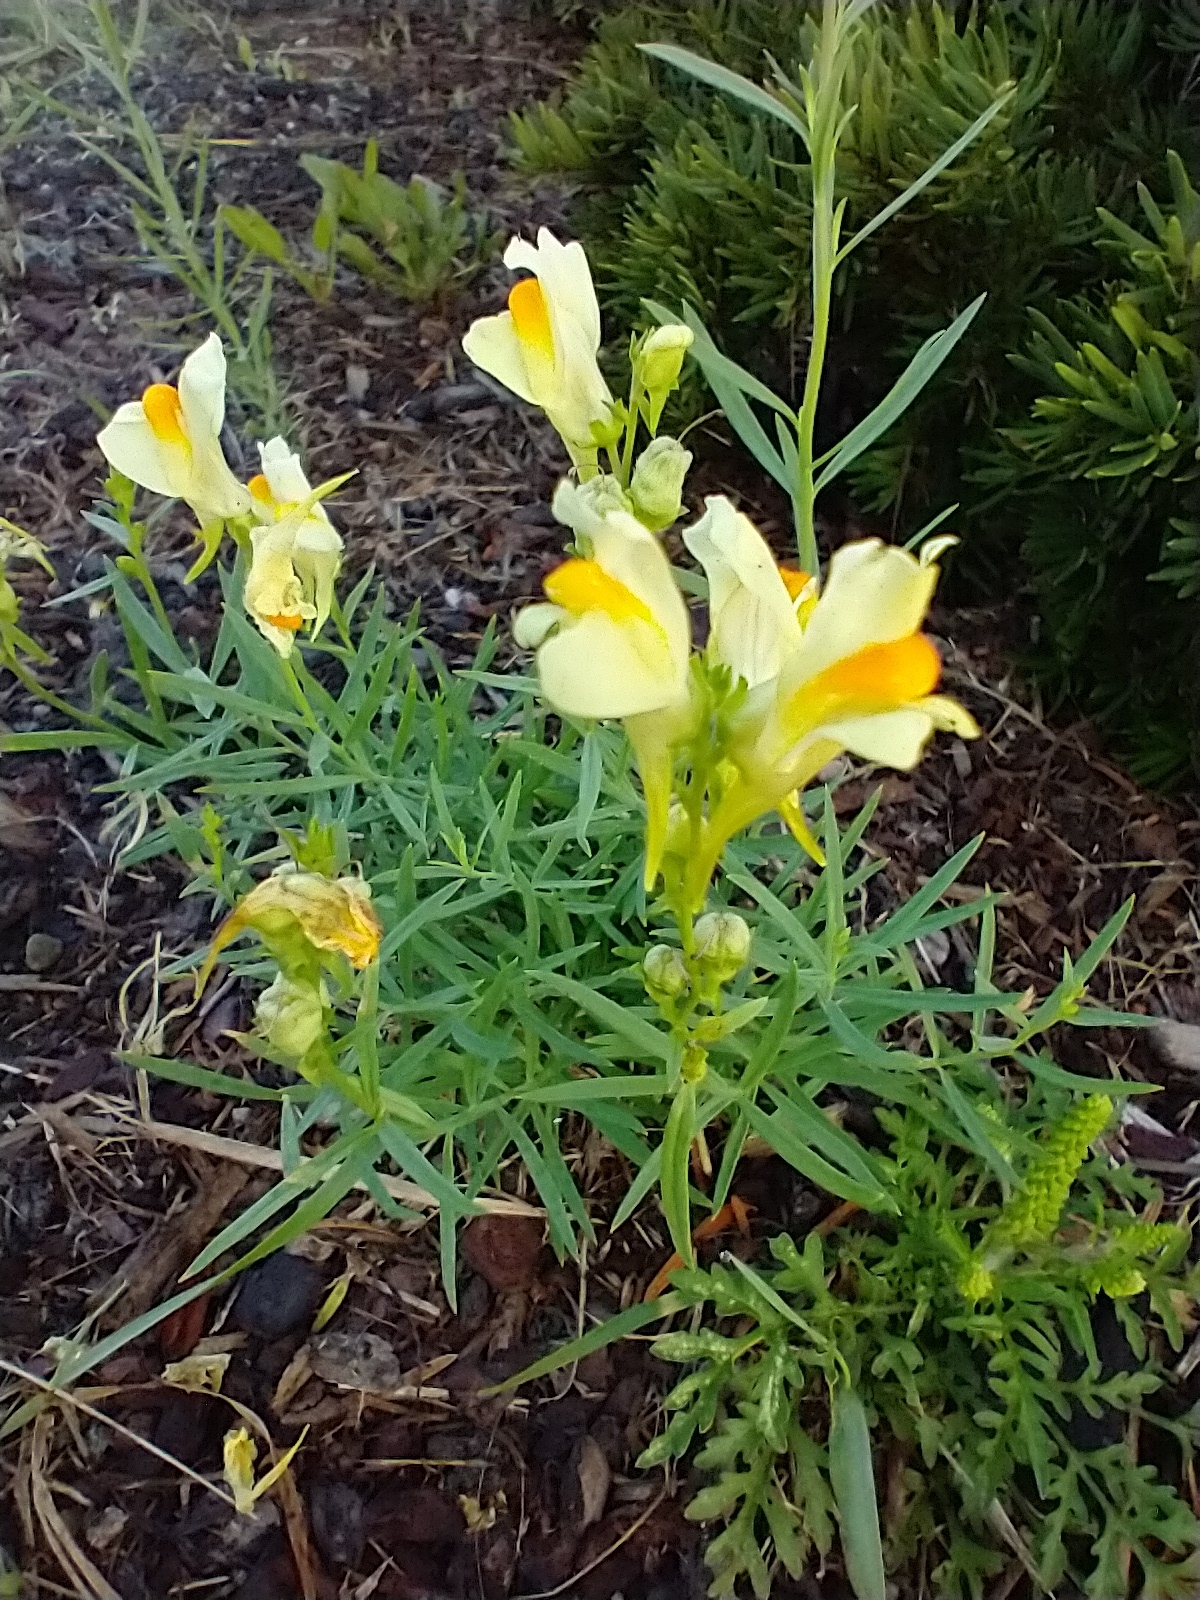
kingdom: Plantae
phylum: Tracheophyta
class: Magnoliopsida
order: Lamiales
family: Plantaginaceae
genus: Linaria
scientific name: Linaria vulgaris
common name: Butter and eggs
